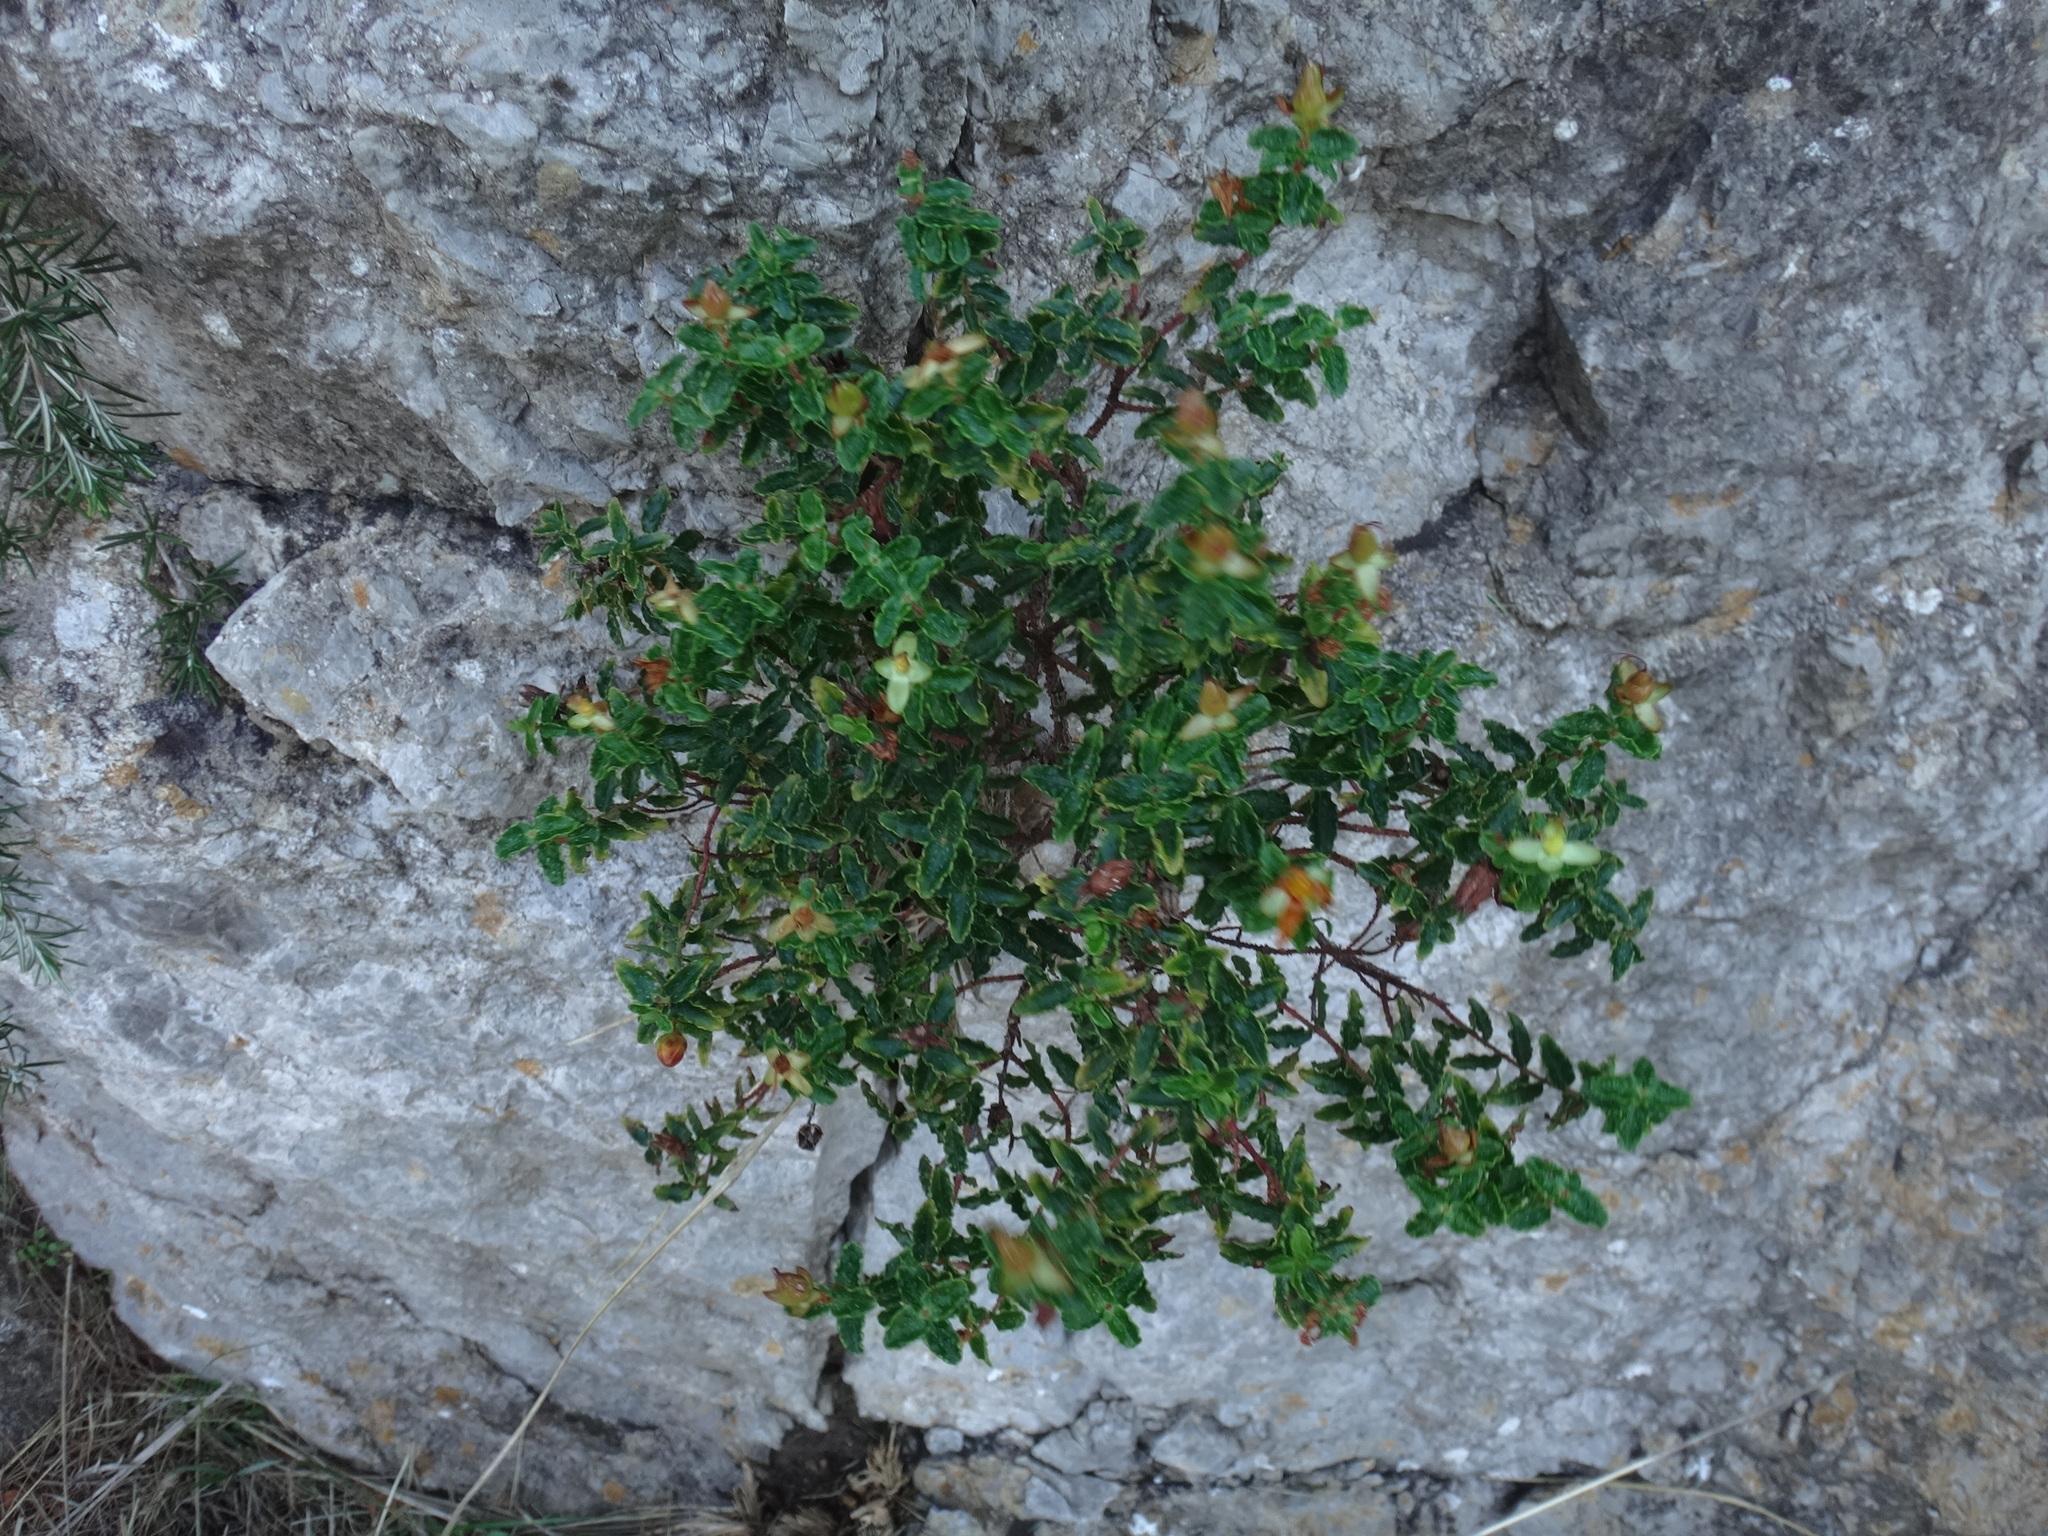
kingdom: Plantae
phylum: Tracheophyta
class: Magnoliopsida
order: Malpighiales
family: Hypericaceae
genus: Hypericum
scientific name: Hypericum balearicum
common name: Majorca st john's wort
